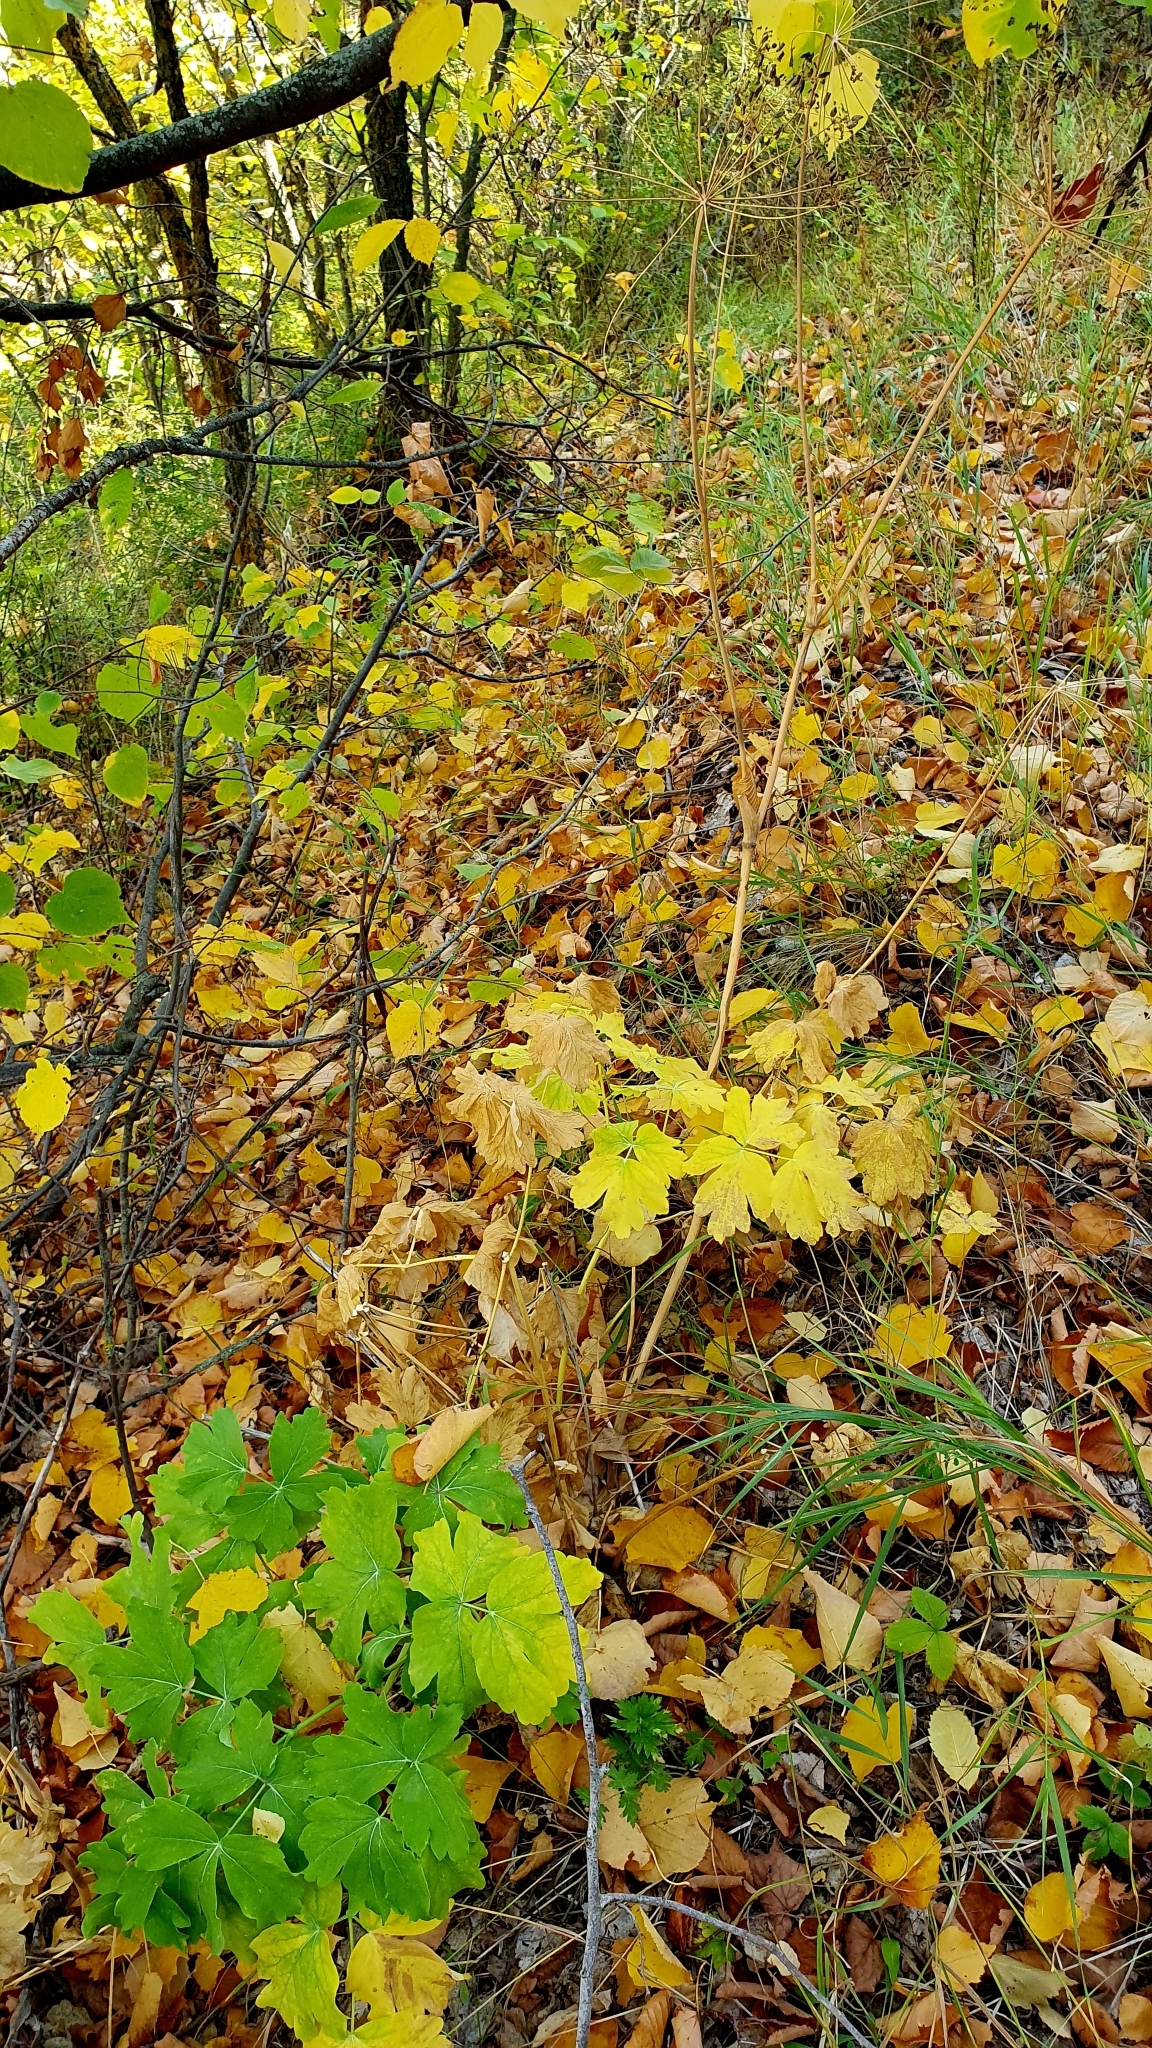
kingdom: Plantae
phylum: Tracheophyta
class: Magnoliopsida
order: Apiales
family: Apiaceae
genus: Laser
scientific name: Laser trilobum
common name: Laser
